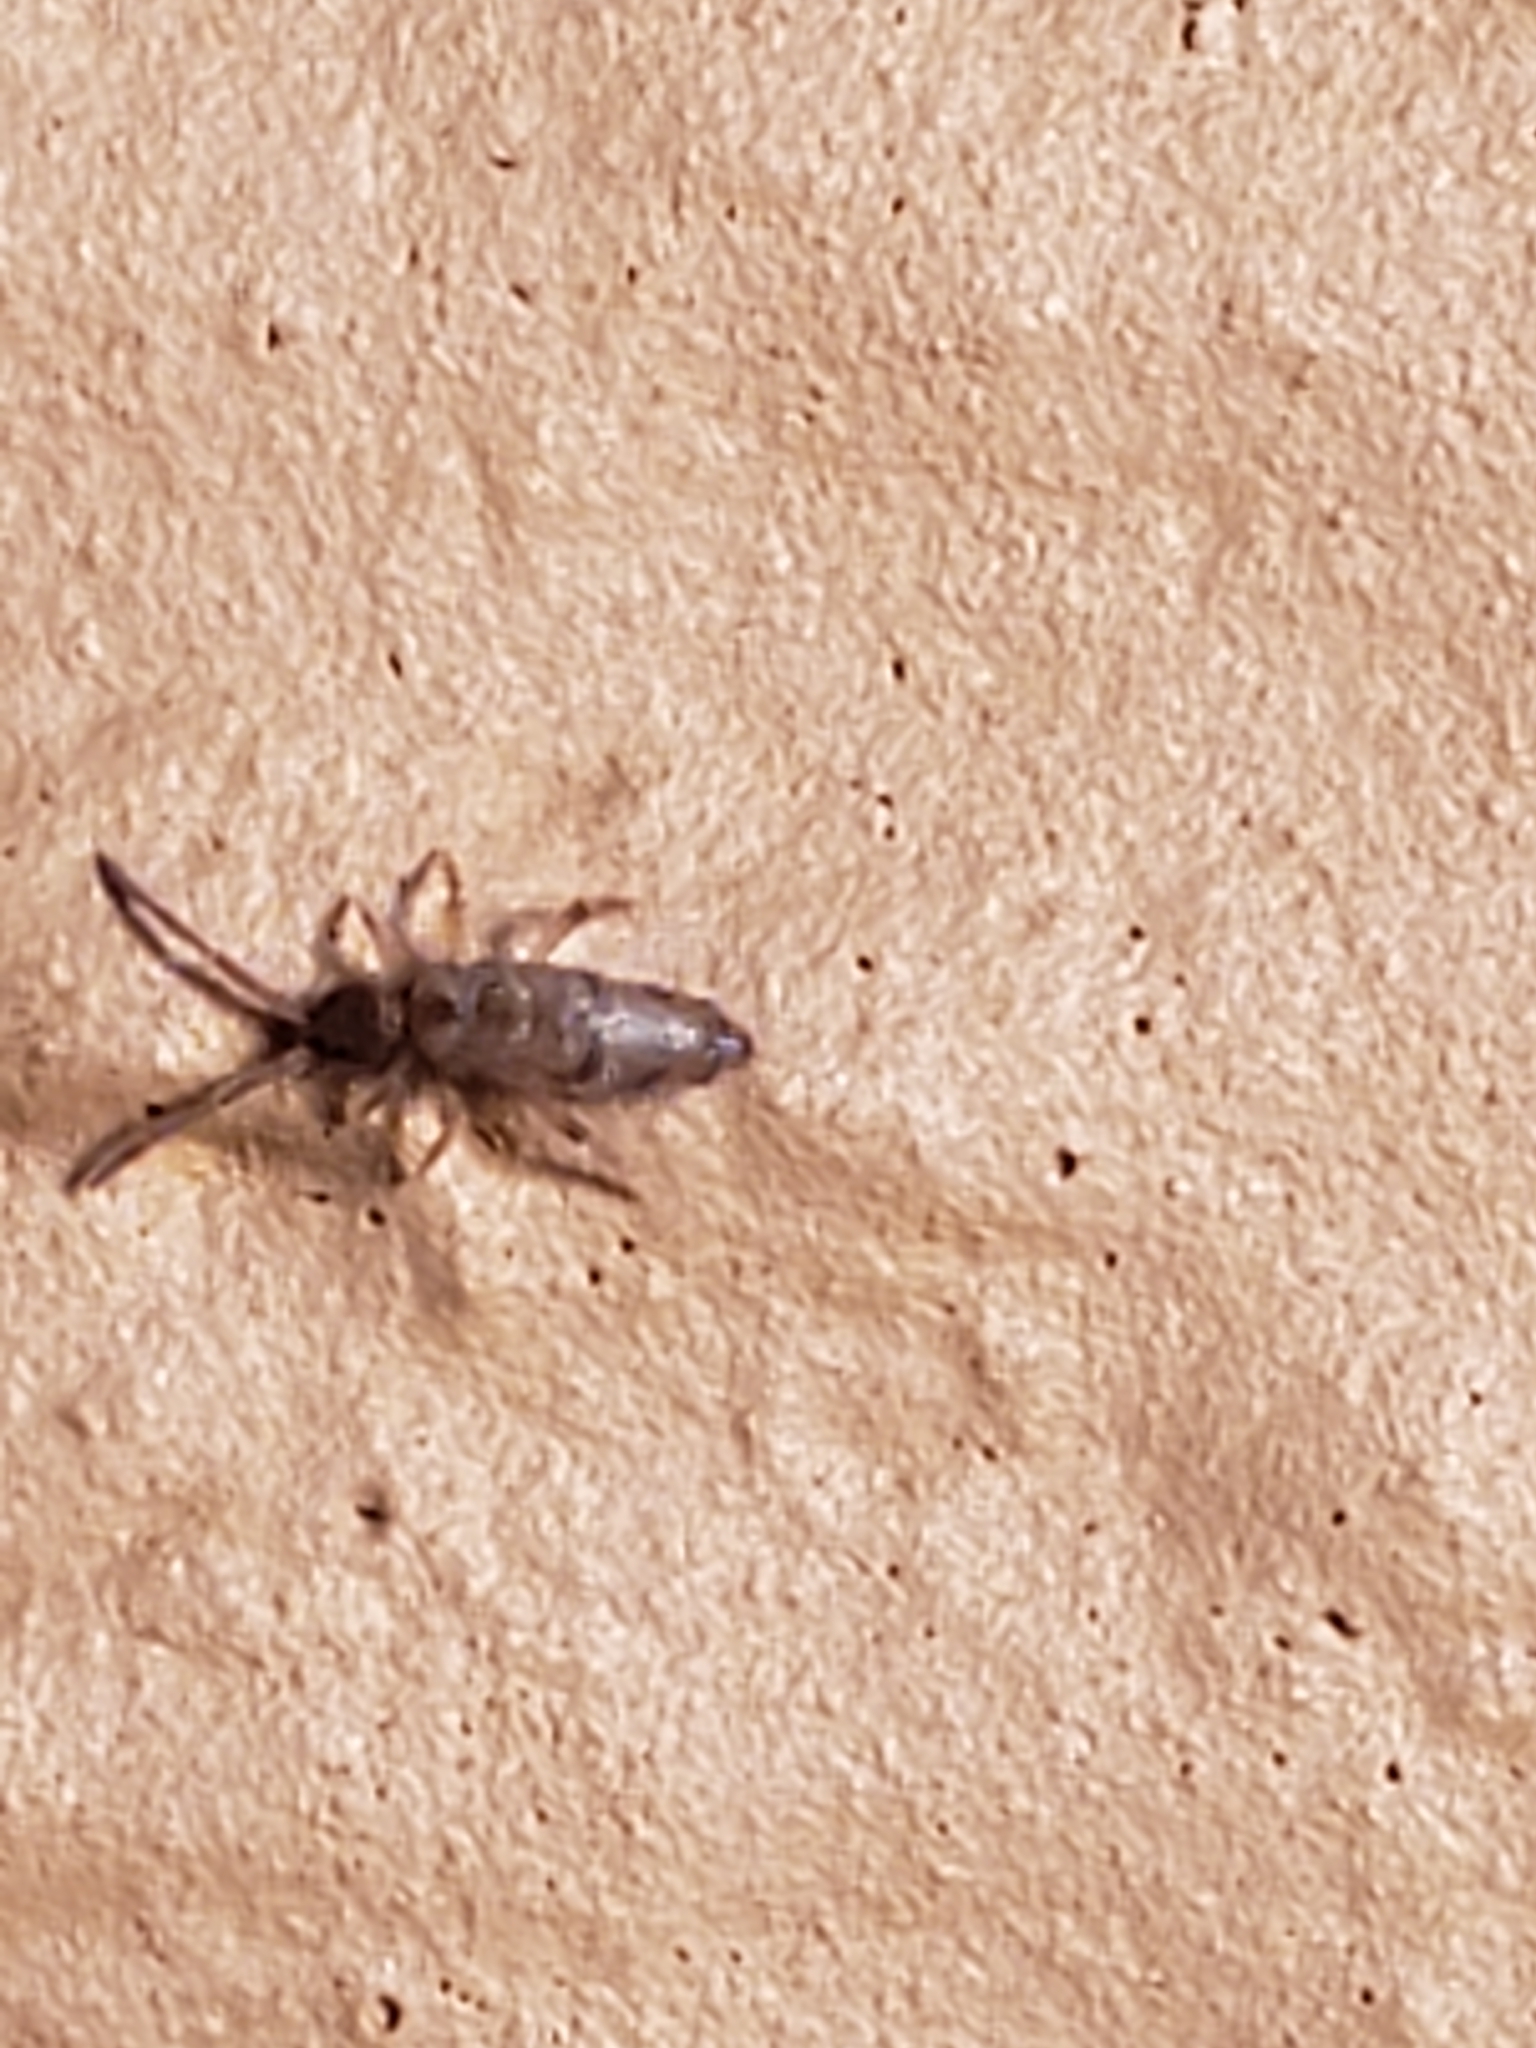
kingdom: Animalia
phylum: Arthropoda
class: Collembola
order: Entomobryomorpha
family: Entomobryidae
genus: Willowsia
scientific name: Willowsia nigromaculata
